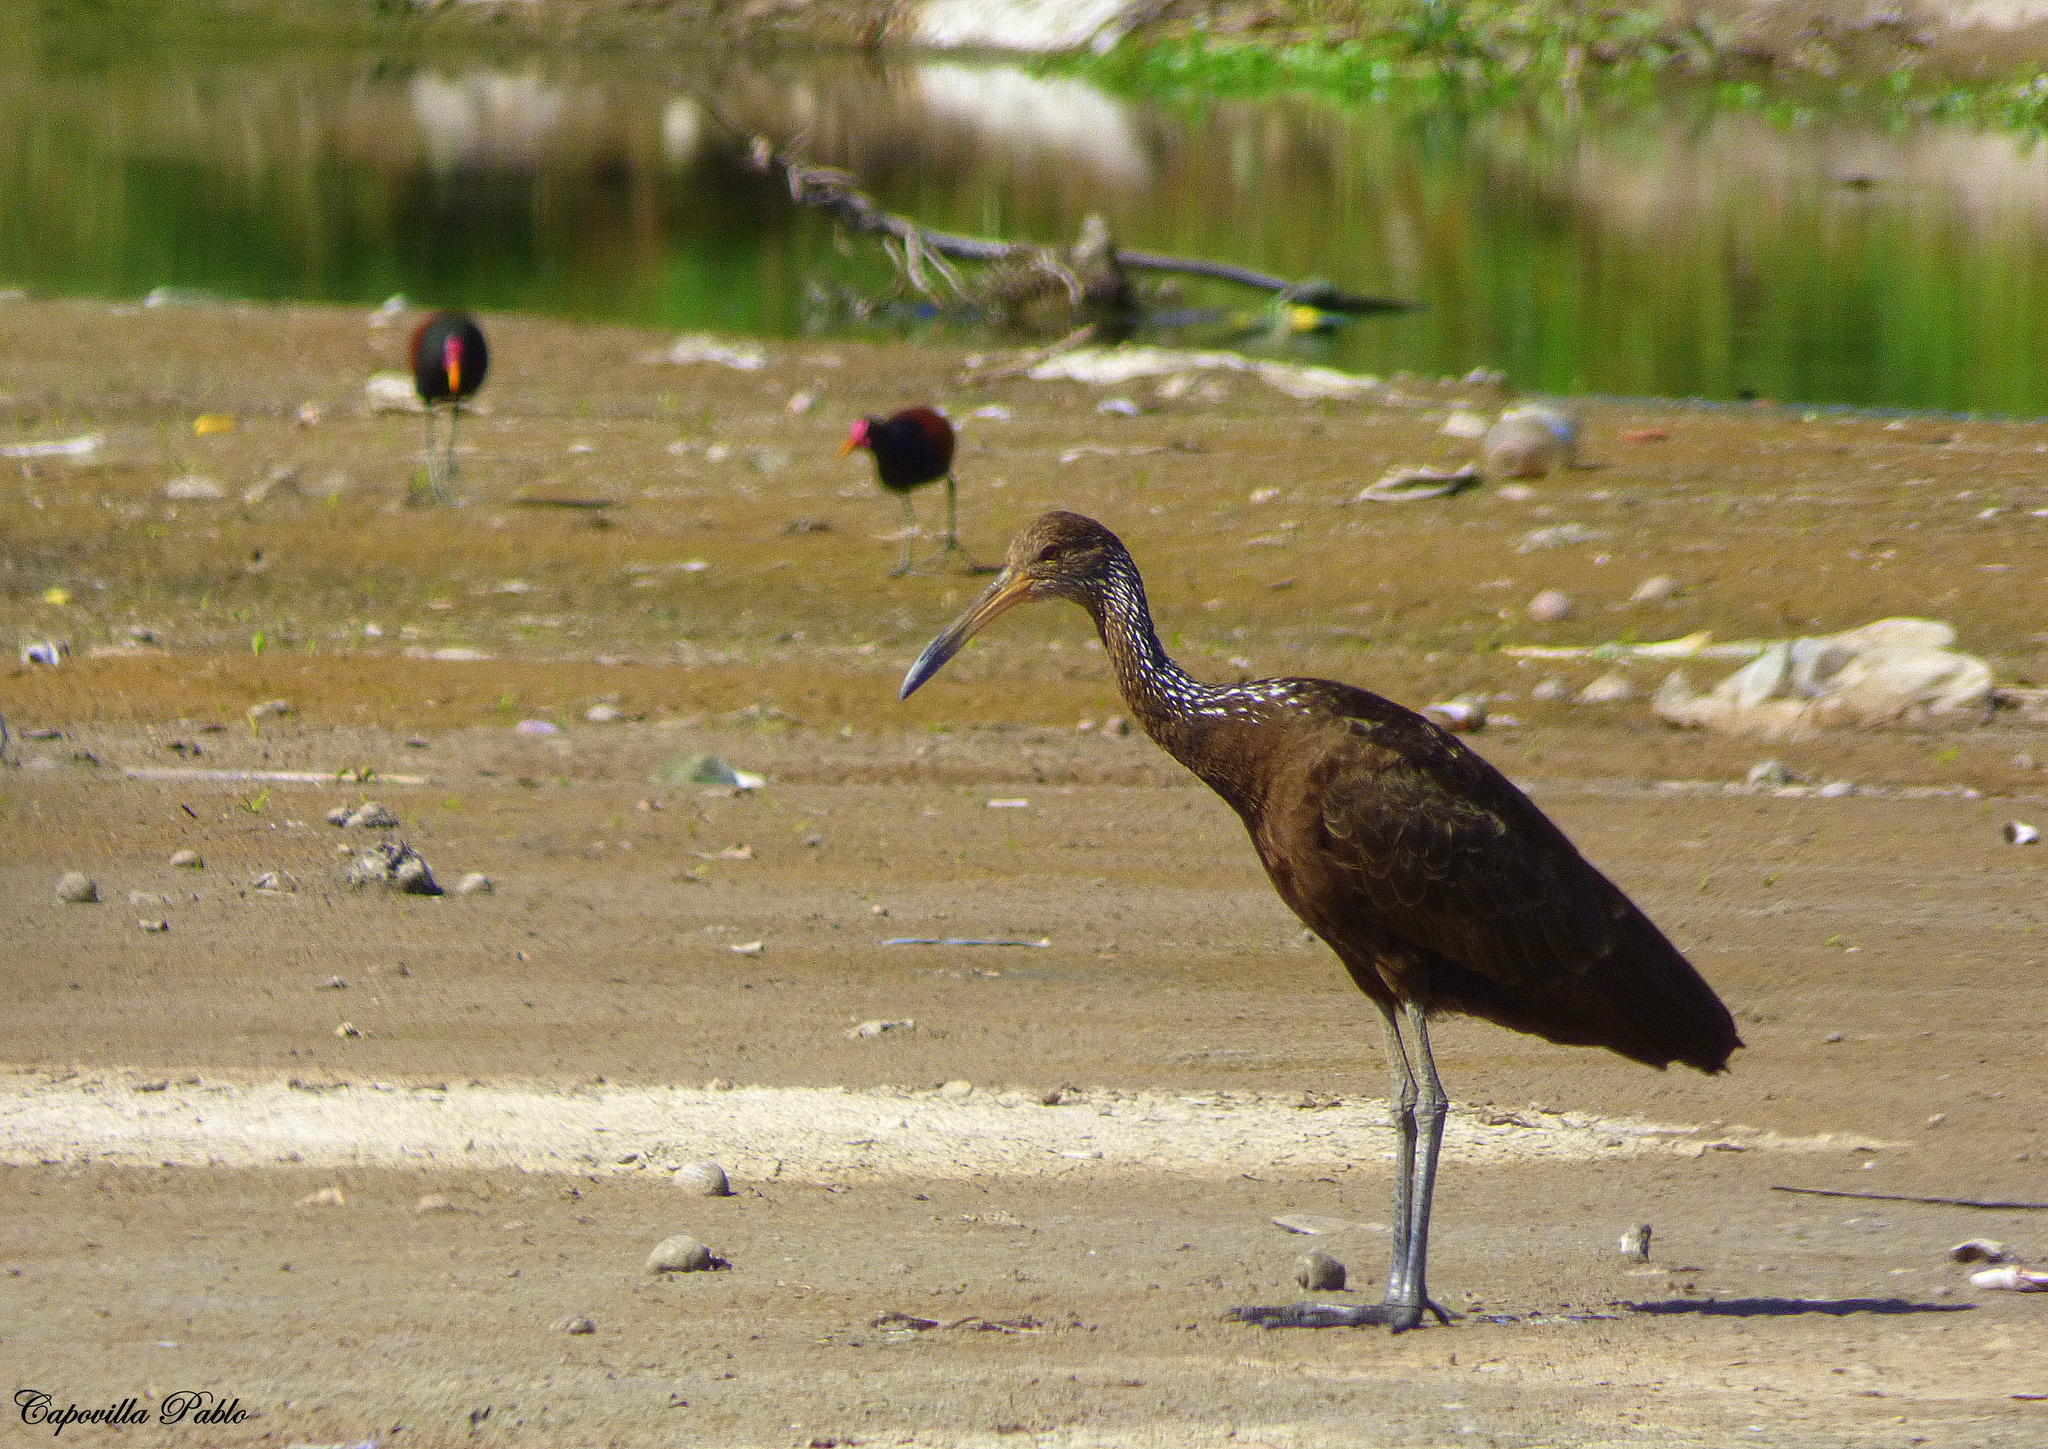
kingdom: Animalia
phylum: Chordata
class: Aves
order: Gruiformes
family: Aramidae
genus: Aramus
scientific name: Aramus guarauna
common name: Limpkin
